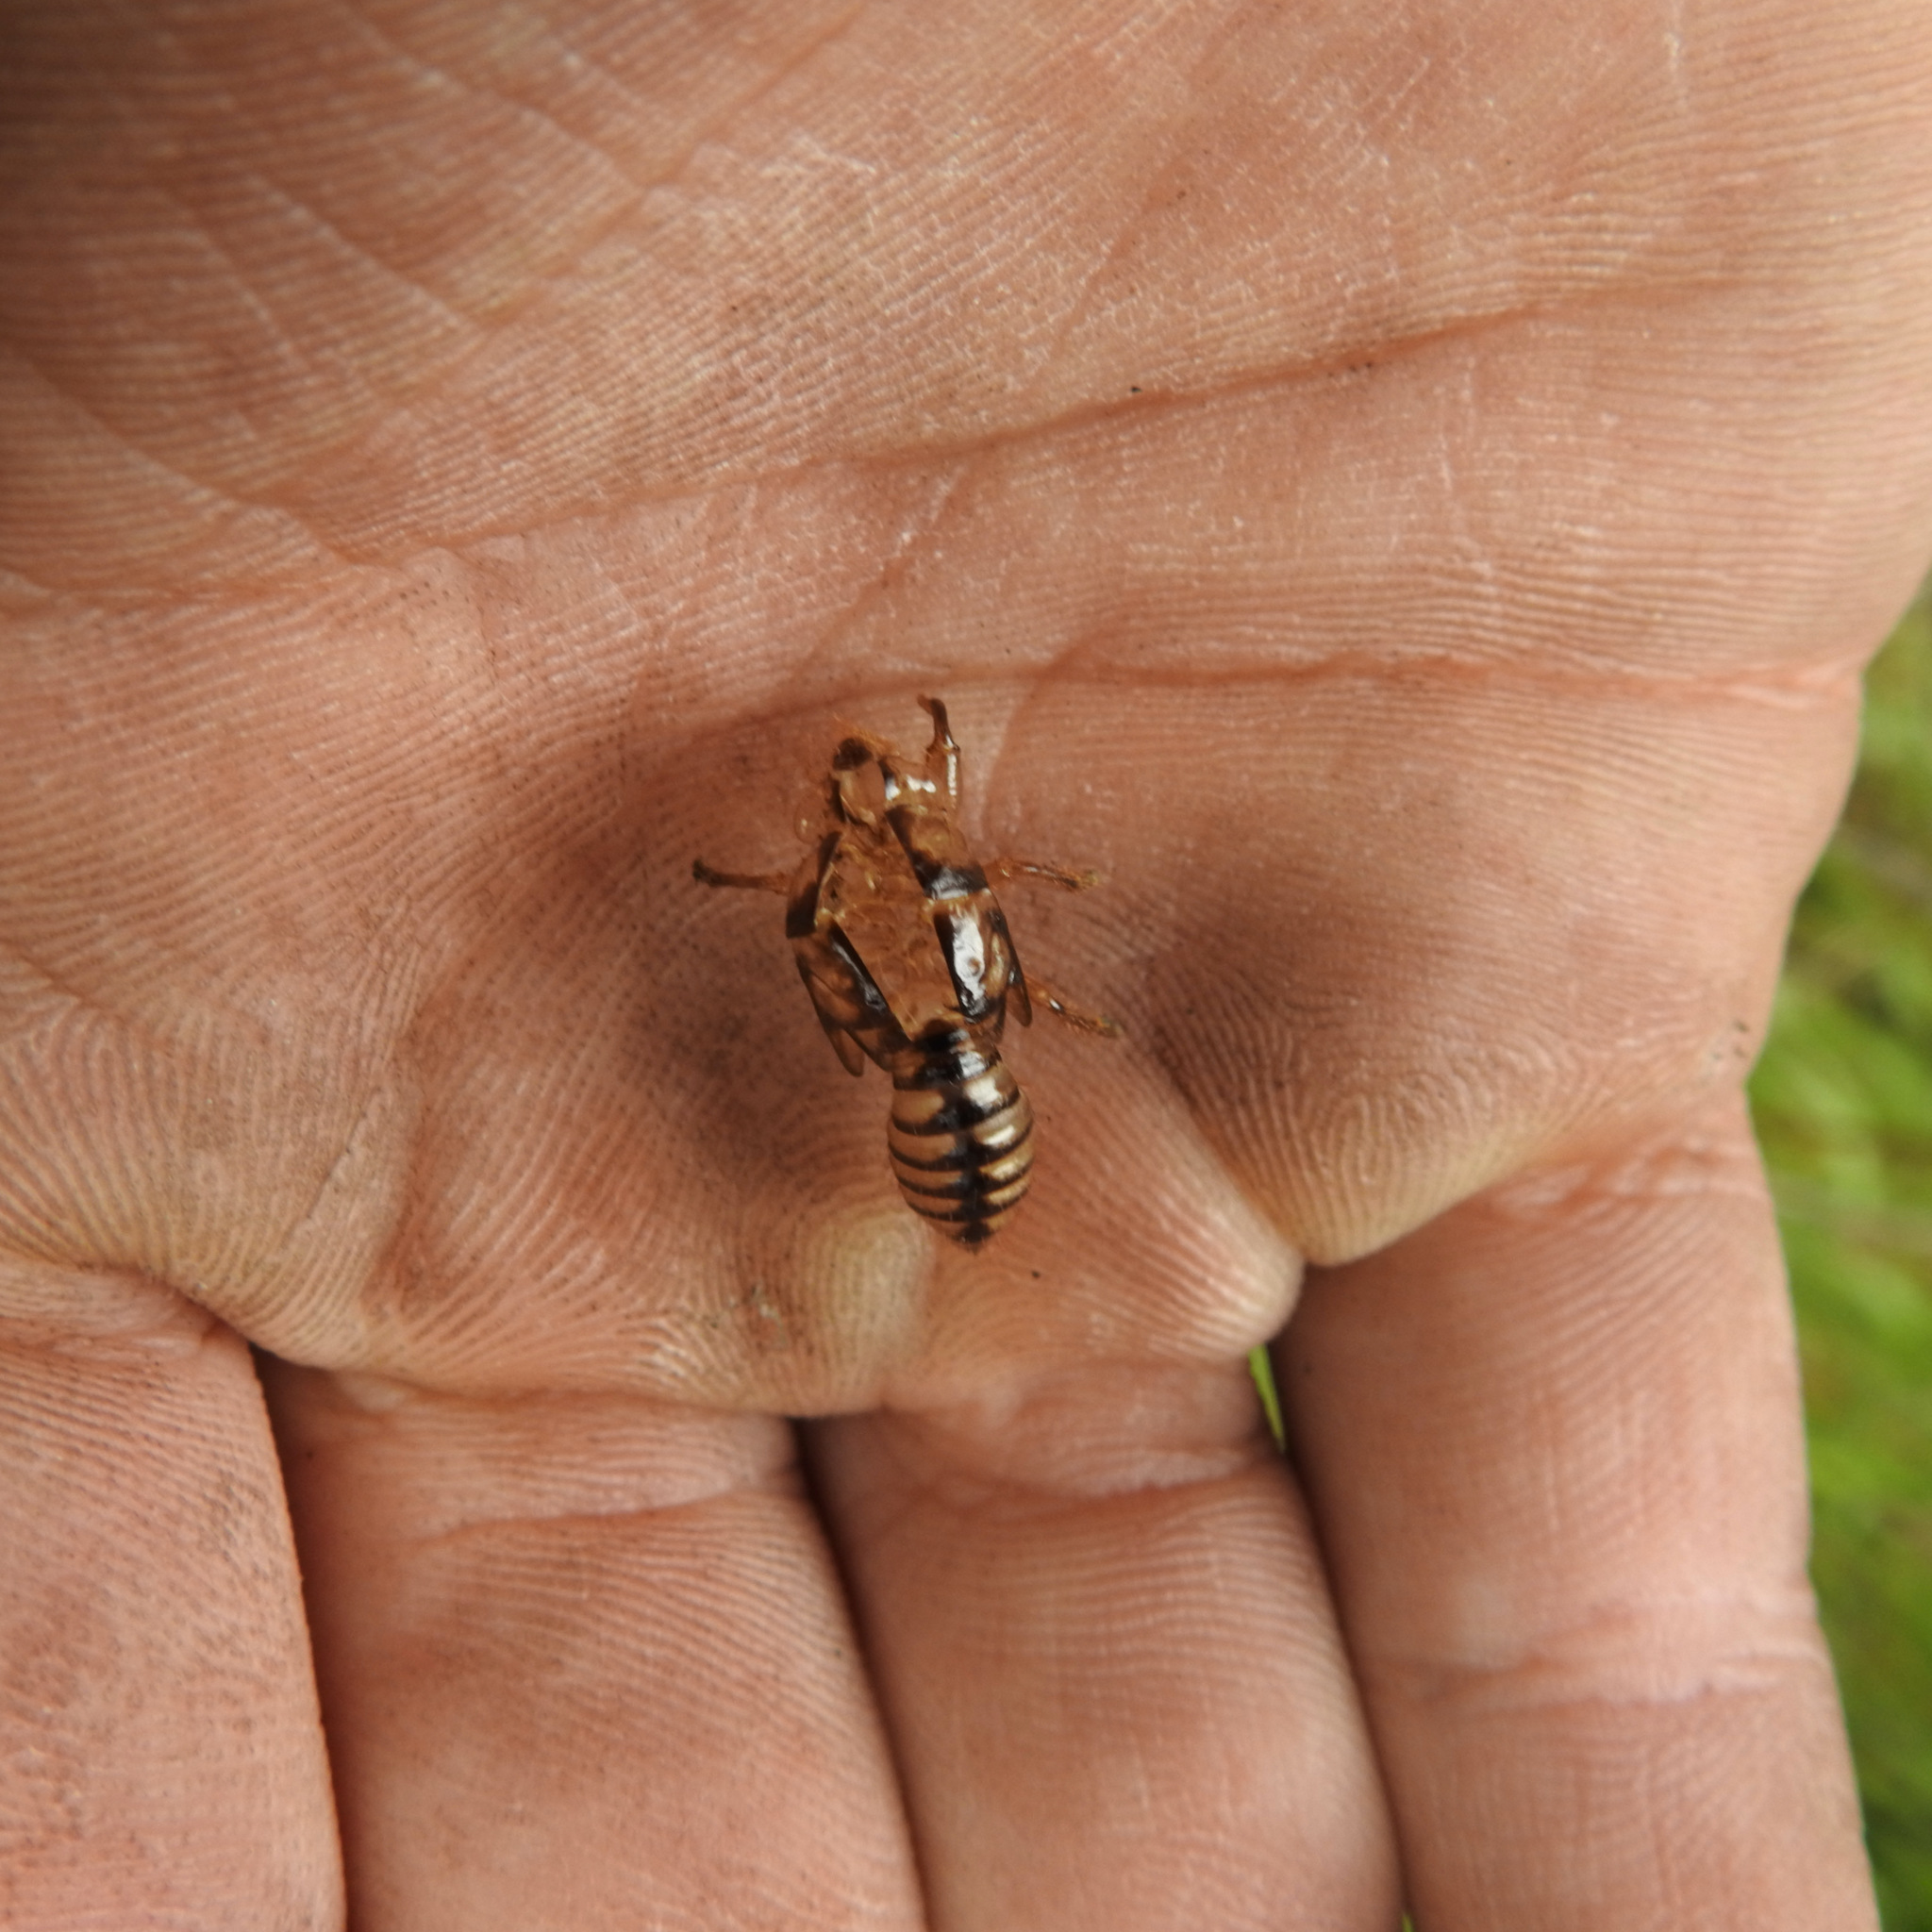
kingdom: Animalia
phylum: Arthropoda
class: Insecta
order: Hemiptera
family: Cicadidae
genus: Platypedia
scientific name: Platypedia
